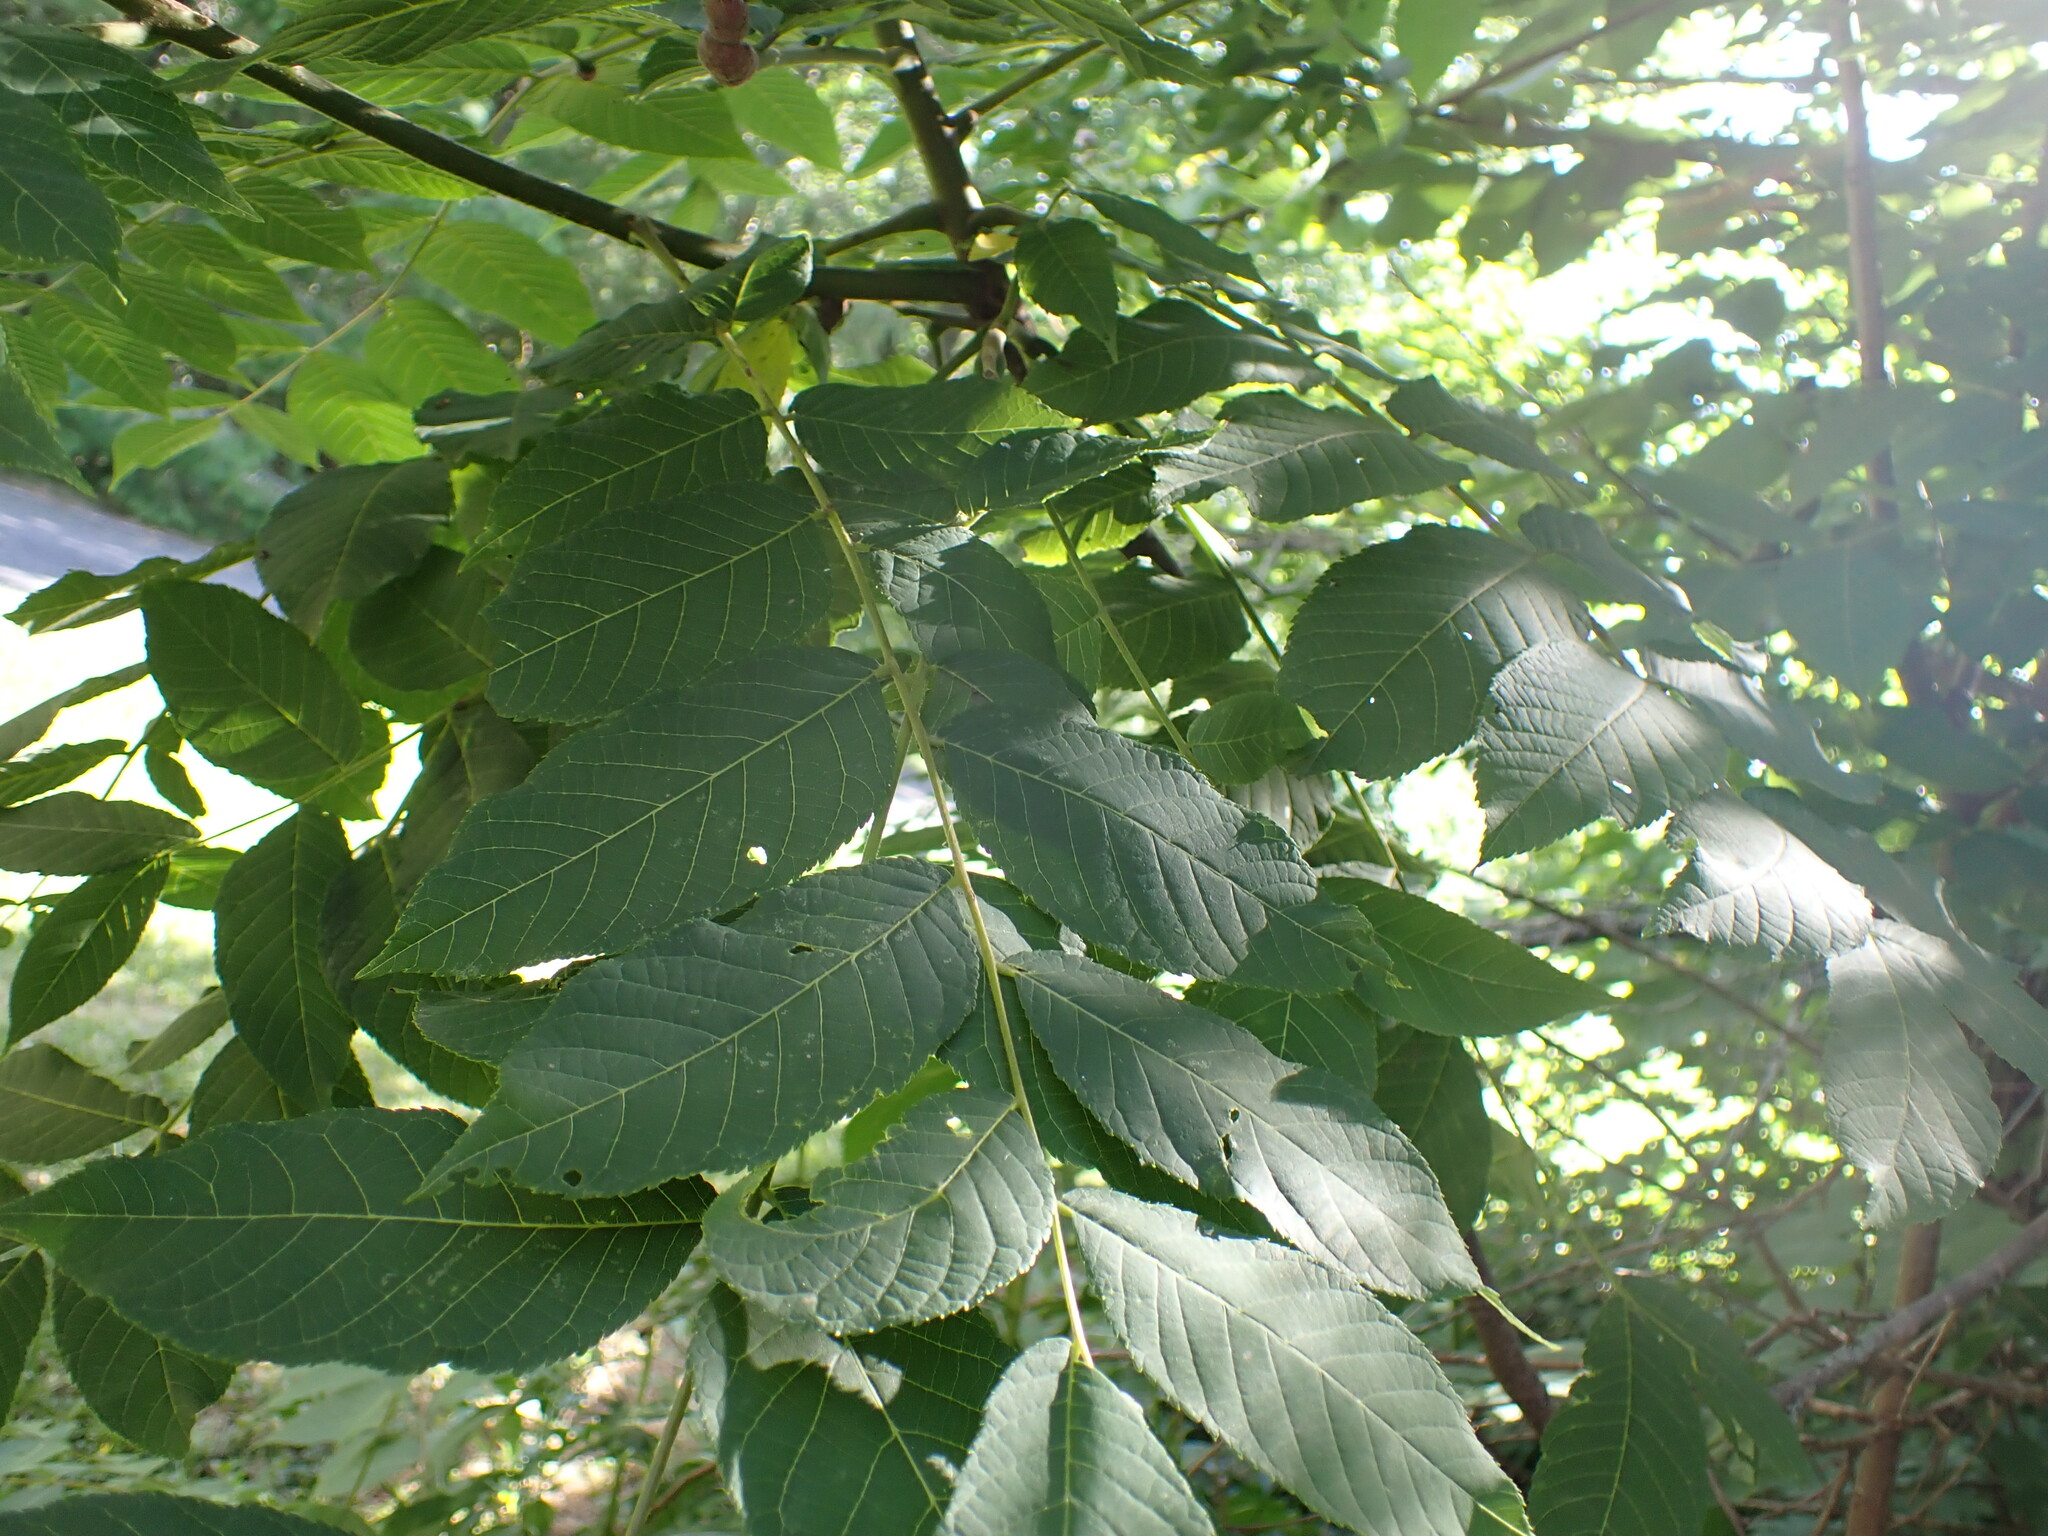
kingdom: Plantae
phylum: Tracheophyta
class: Magnoliopsida
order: Fagales
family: Juglandaceae
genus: Juglans
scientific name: Juglans nigra
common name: Black walnut
